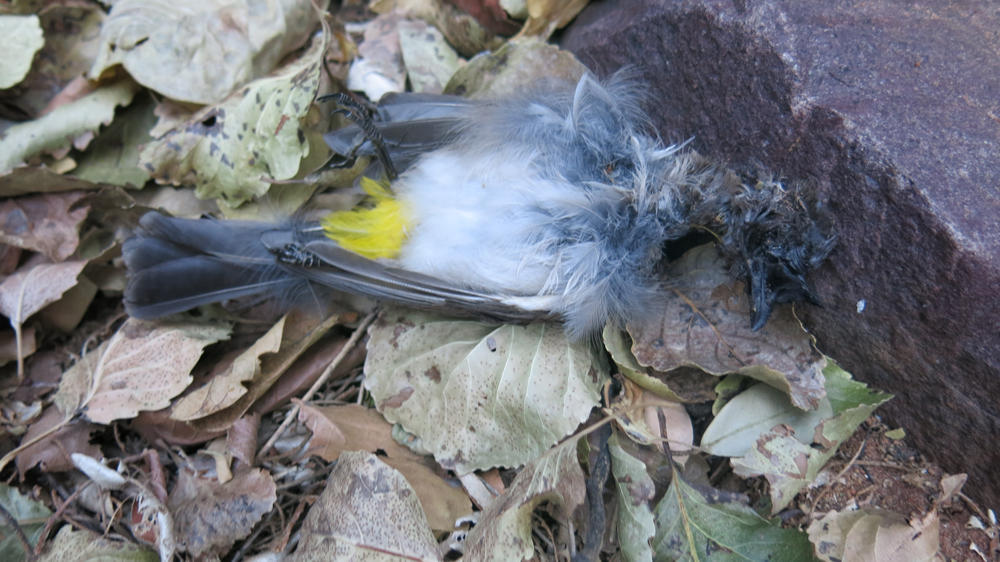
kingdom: Animalia
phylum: Chordata
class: Aves
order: Passeriformes
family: Pycnonotidae
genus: Pycnonotus
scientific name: Pycnonotus barbatus
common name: Common bulbul
